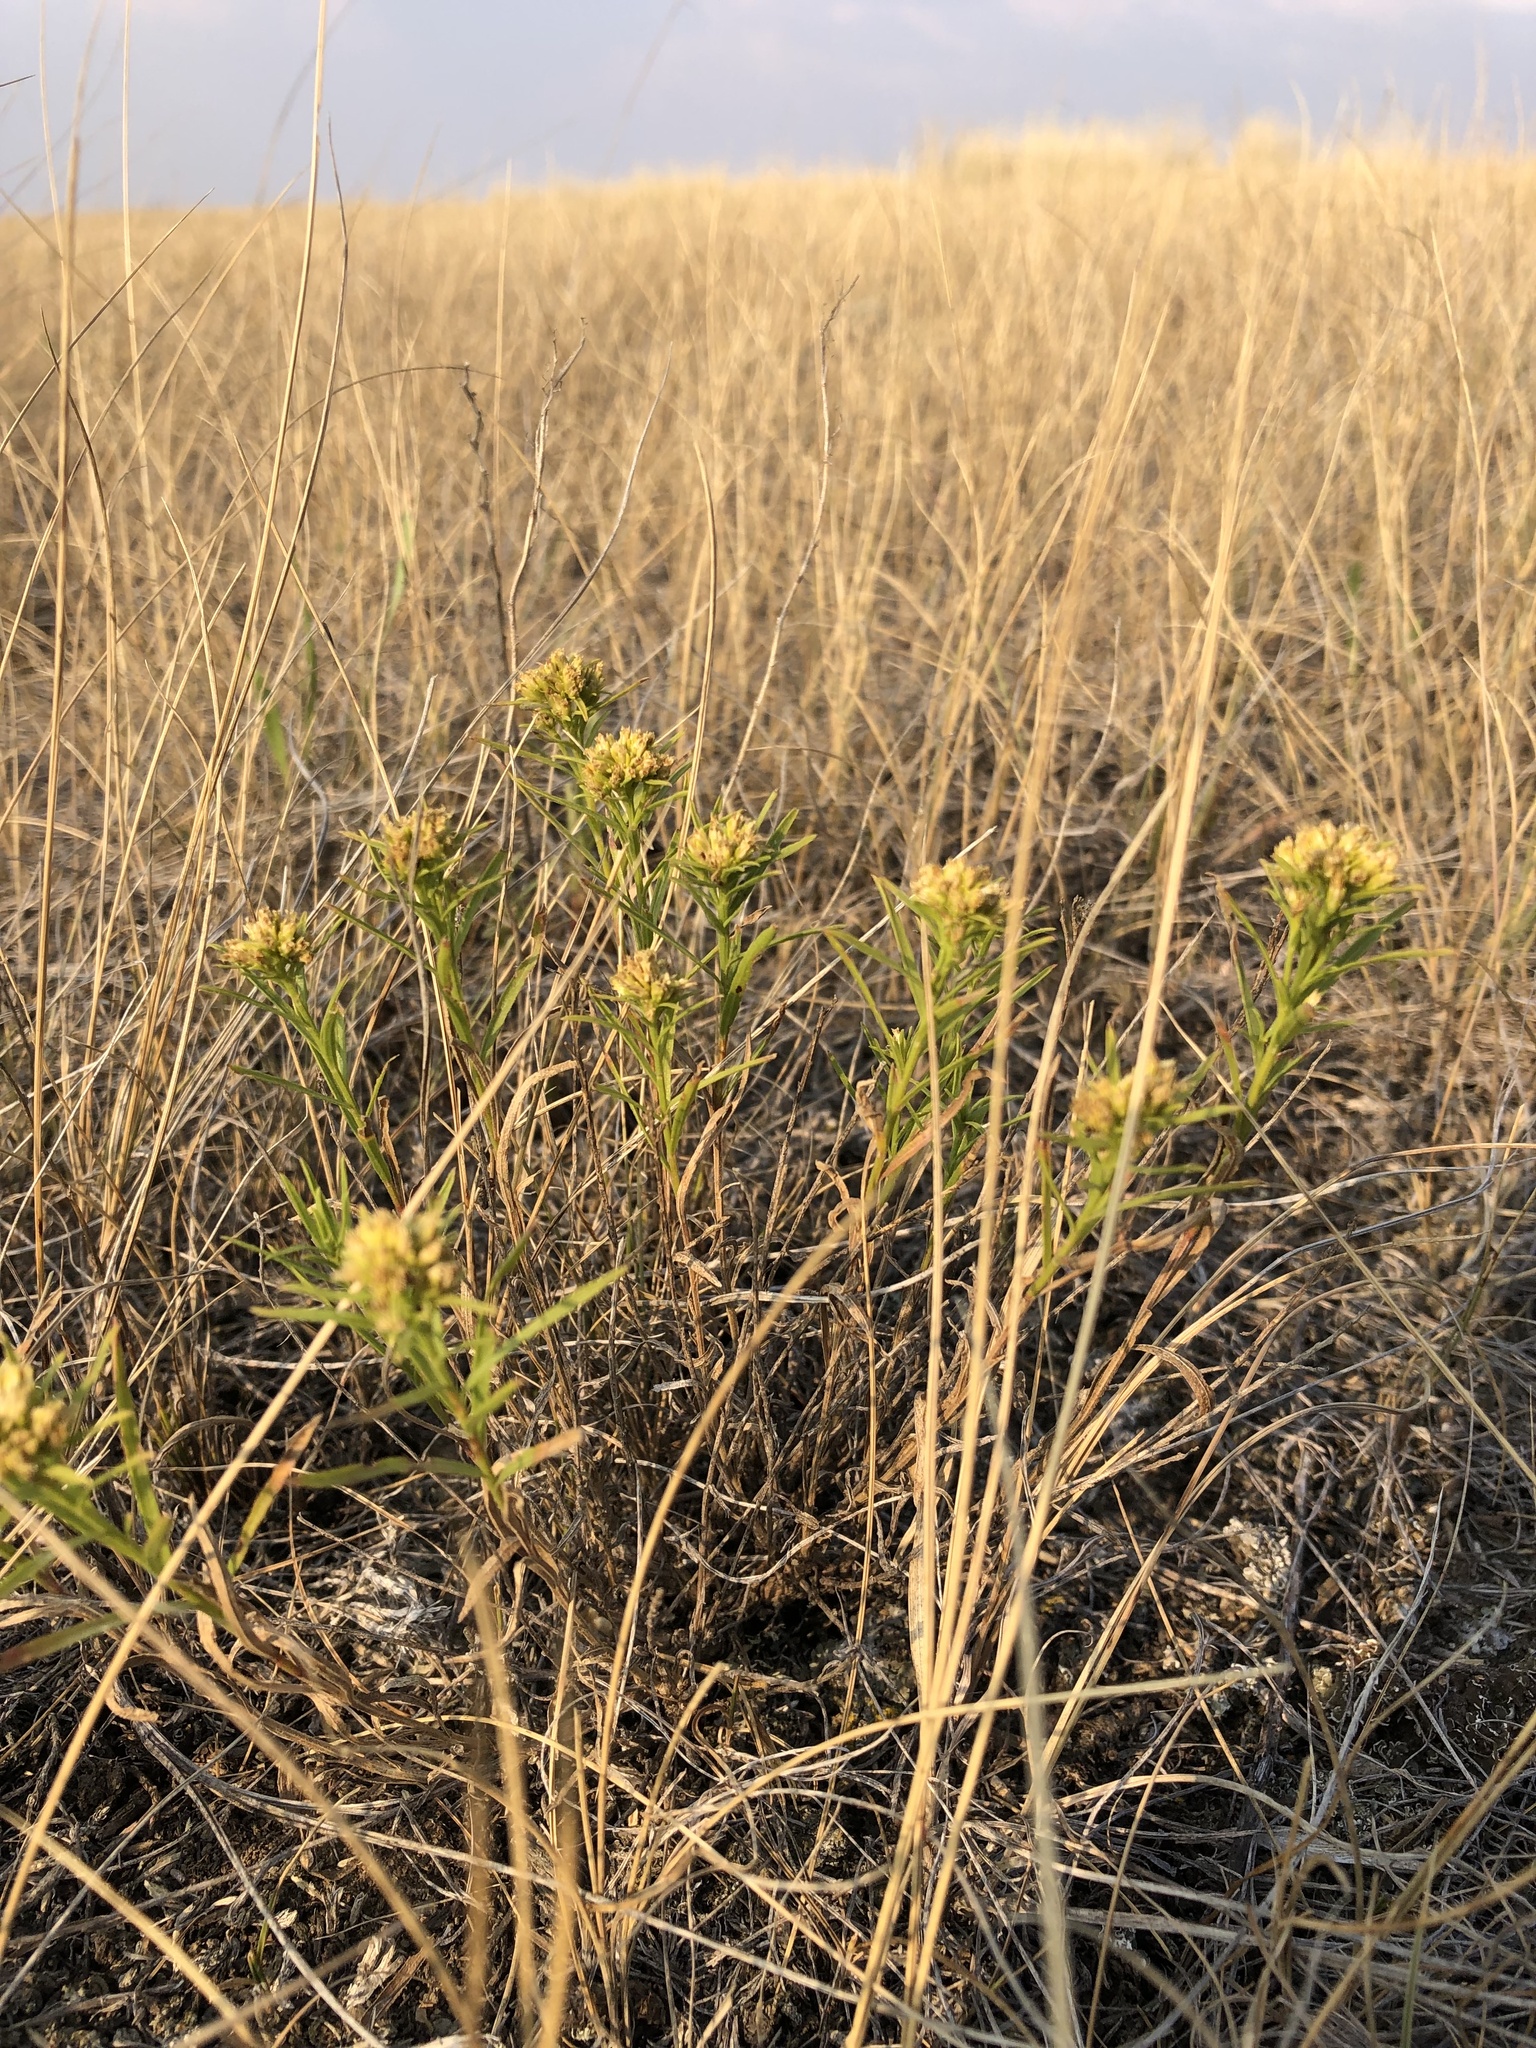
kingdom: Plantae
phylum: Tracheophyta
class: Magnoliopsida
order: Asterales
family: Asteraceae
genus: Gutierrezia
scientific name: Gutierrezia sarothrae
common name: Broom snakeweed
